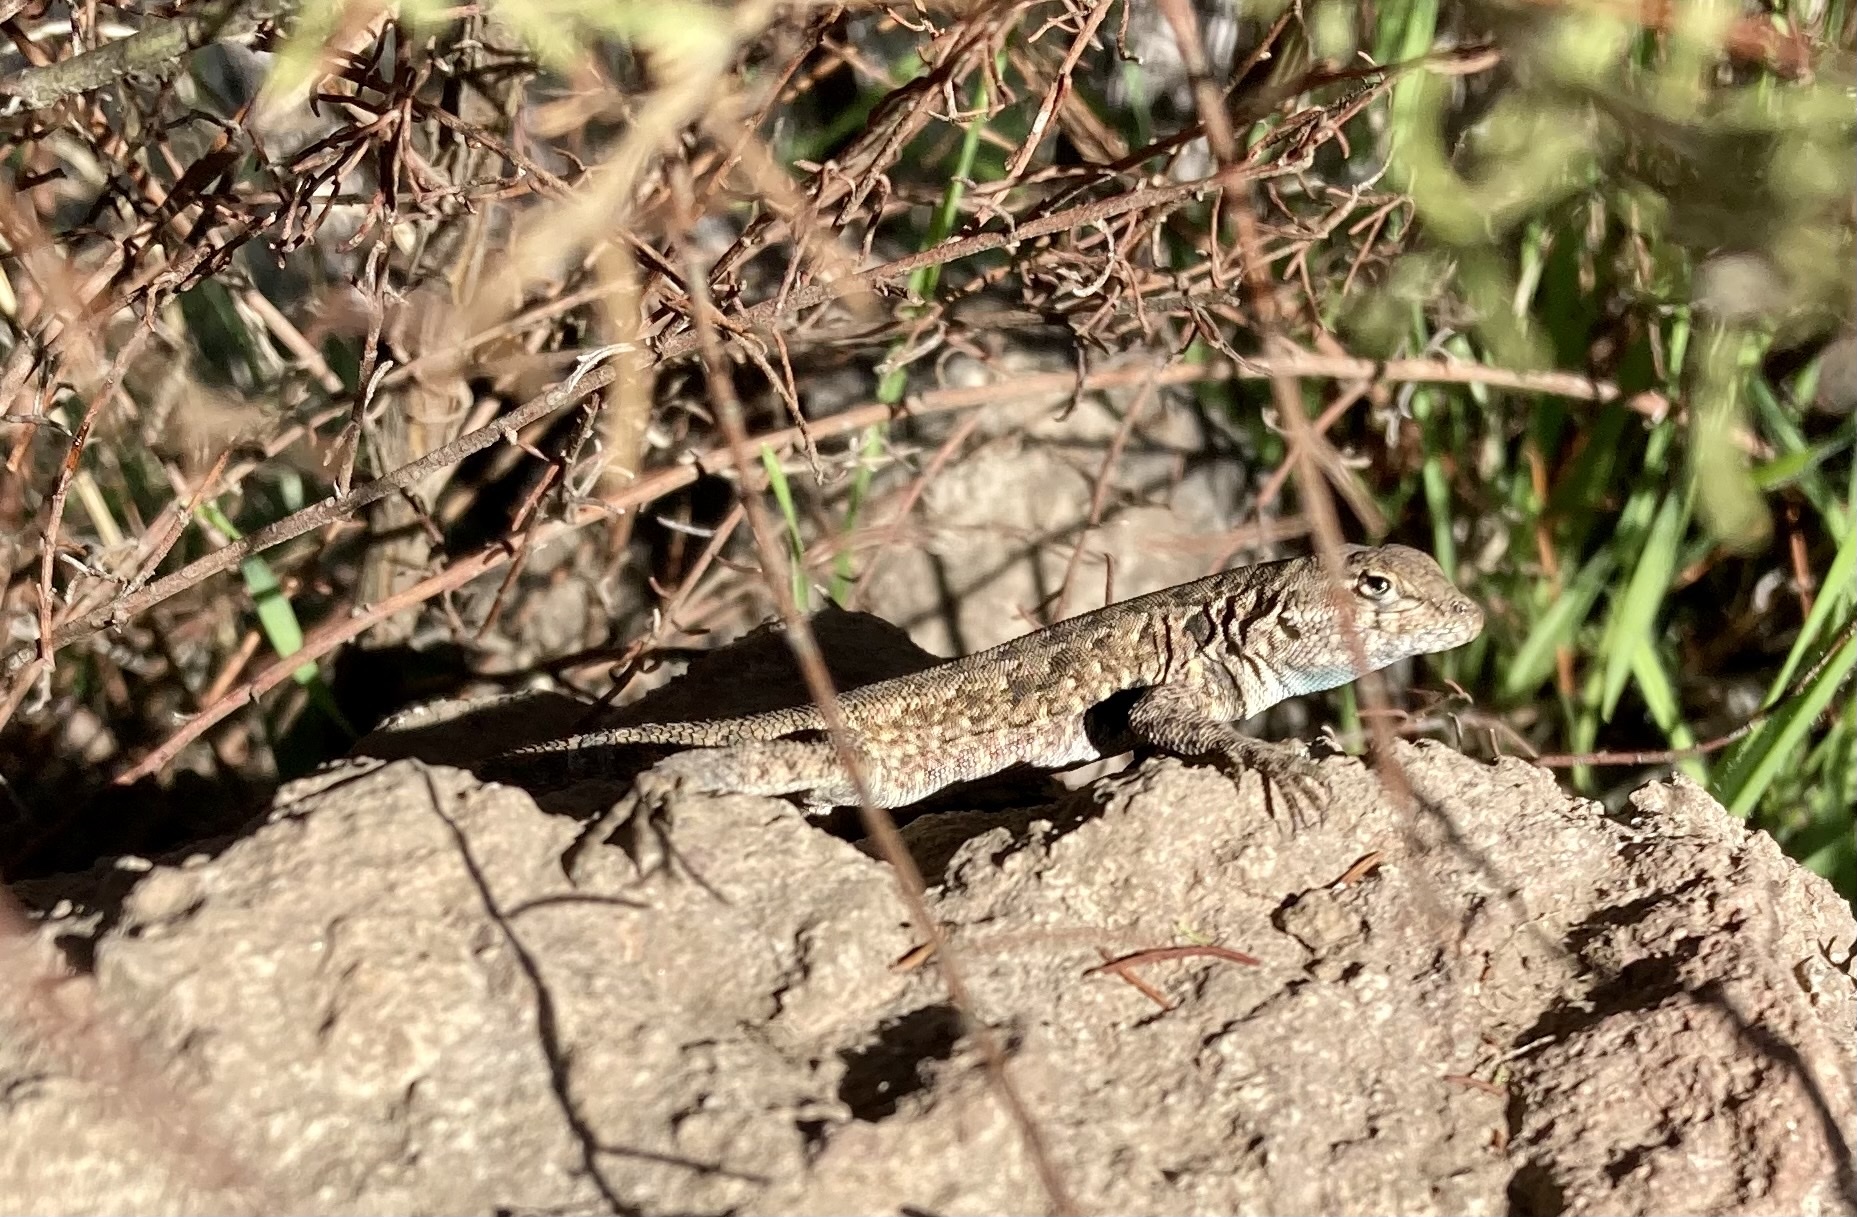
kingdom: Animalia
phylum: Chordata
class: Squamata
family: Phrynosomatidae
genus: Uta
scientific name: Uta stansburiana
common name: Side-blotched lizard
